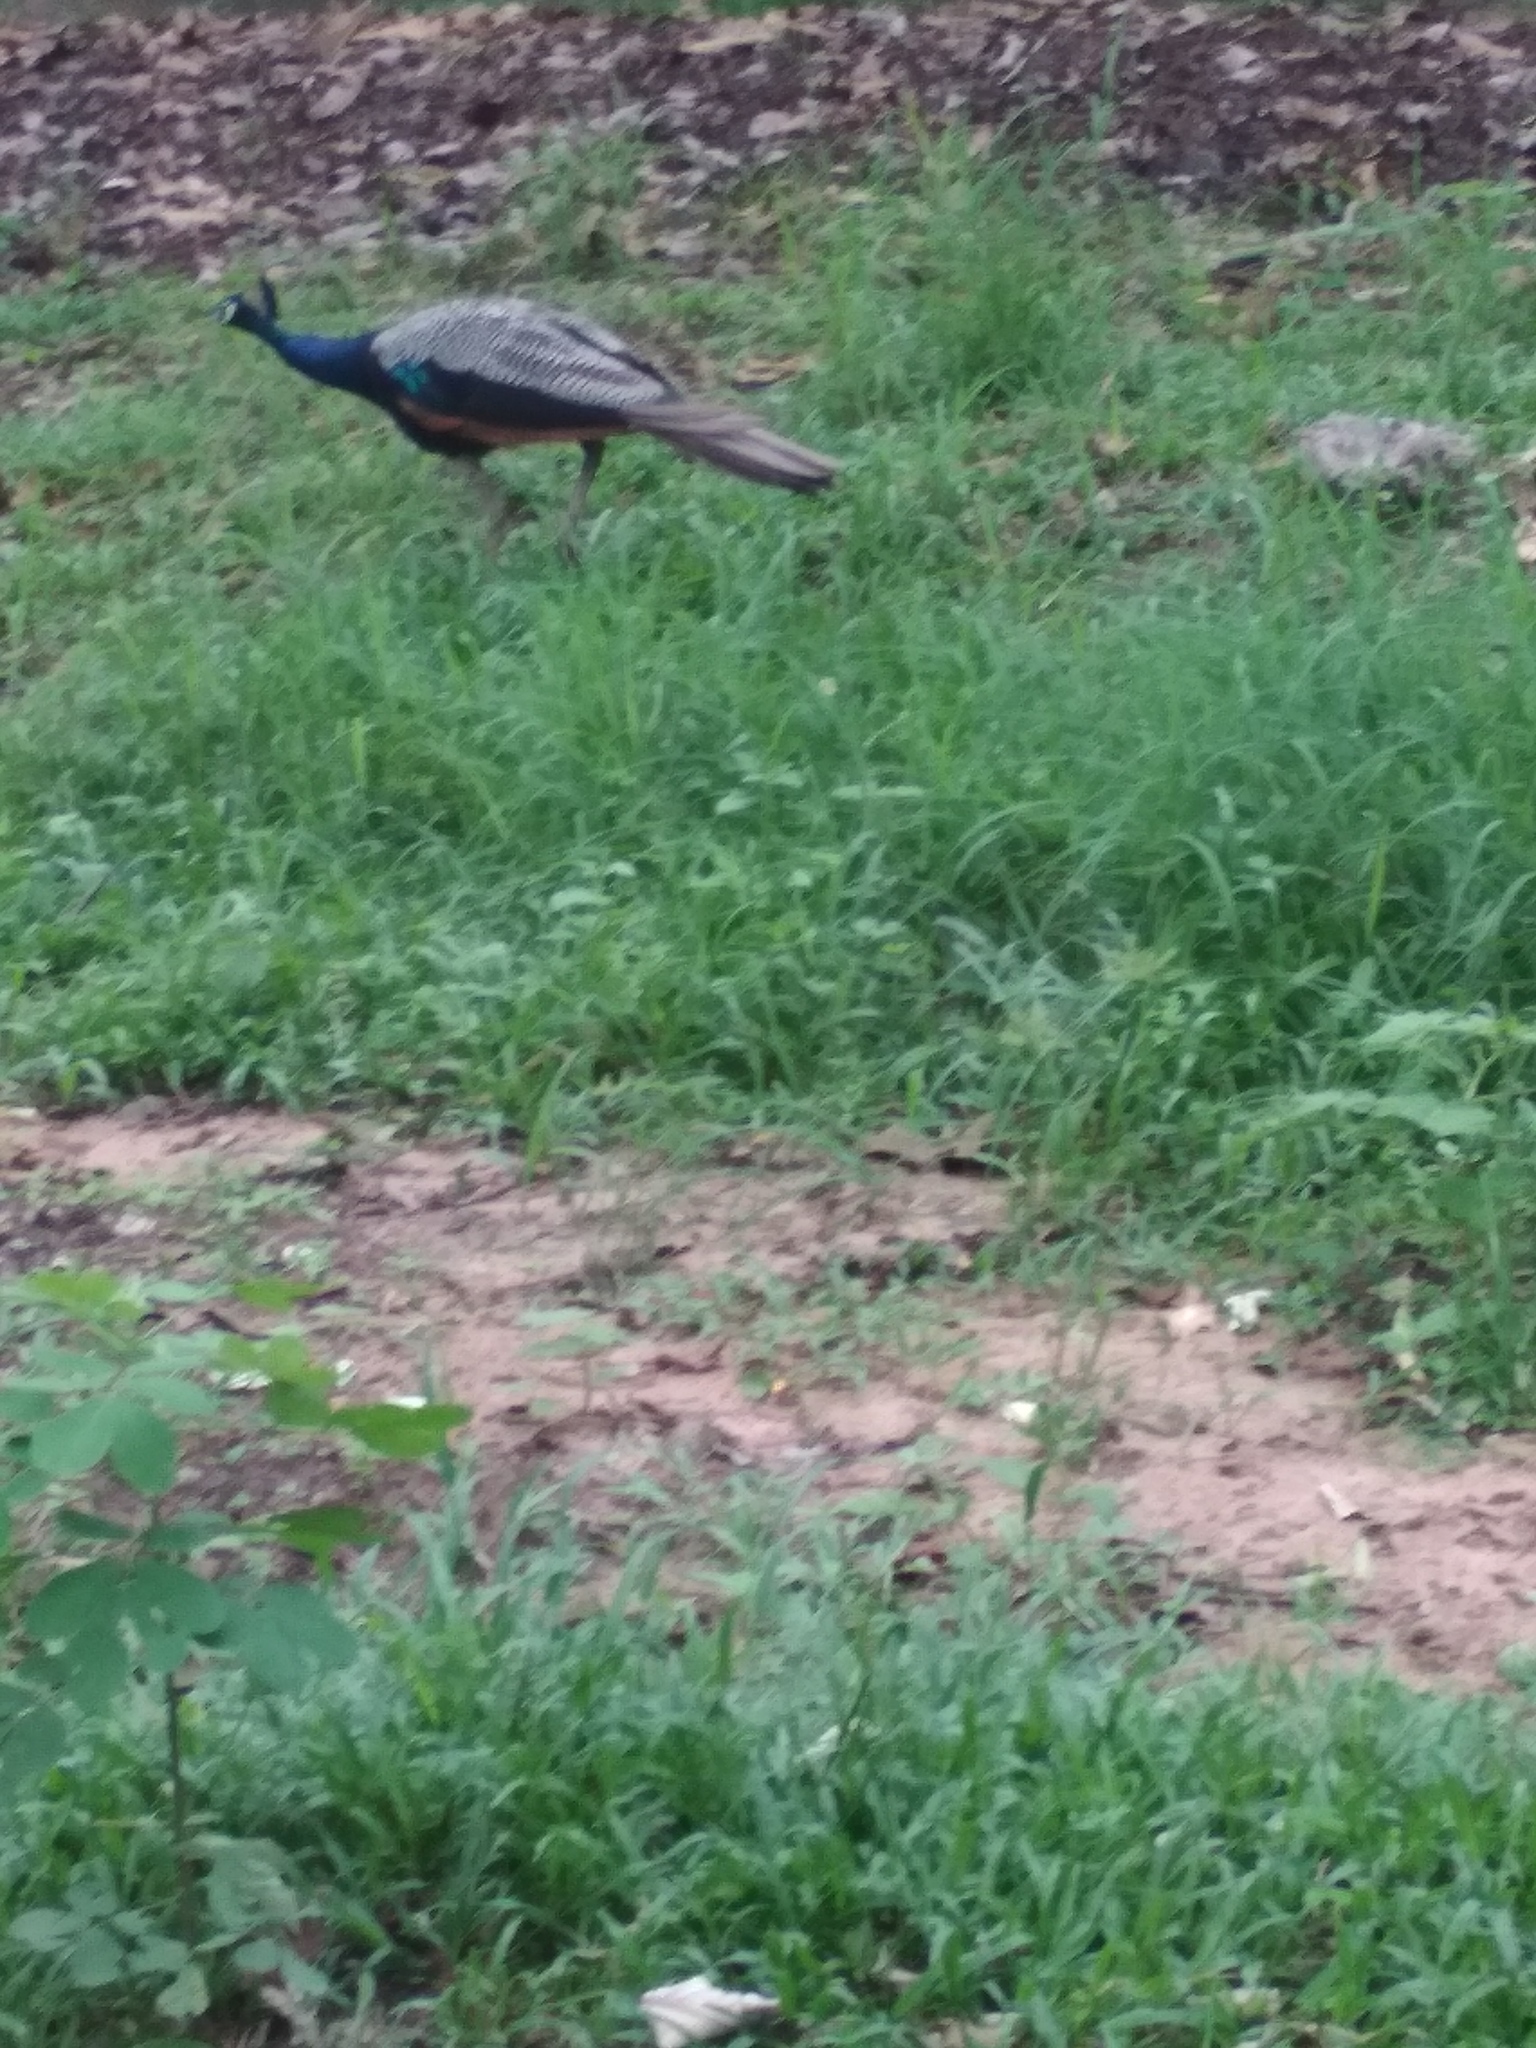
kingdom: Animalia
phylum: Chordata
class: Aves
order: Galliformes
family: Phasianidae
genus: Pavo
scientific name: Pavo cristatus
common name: Indian peafowl
